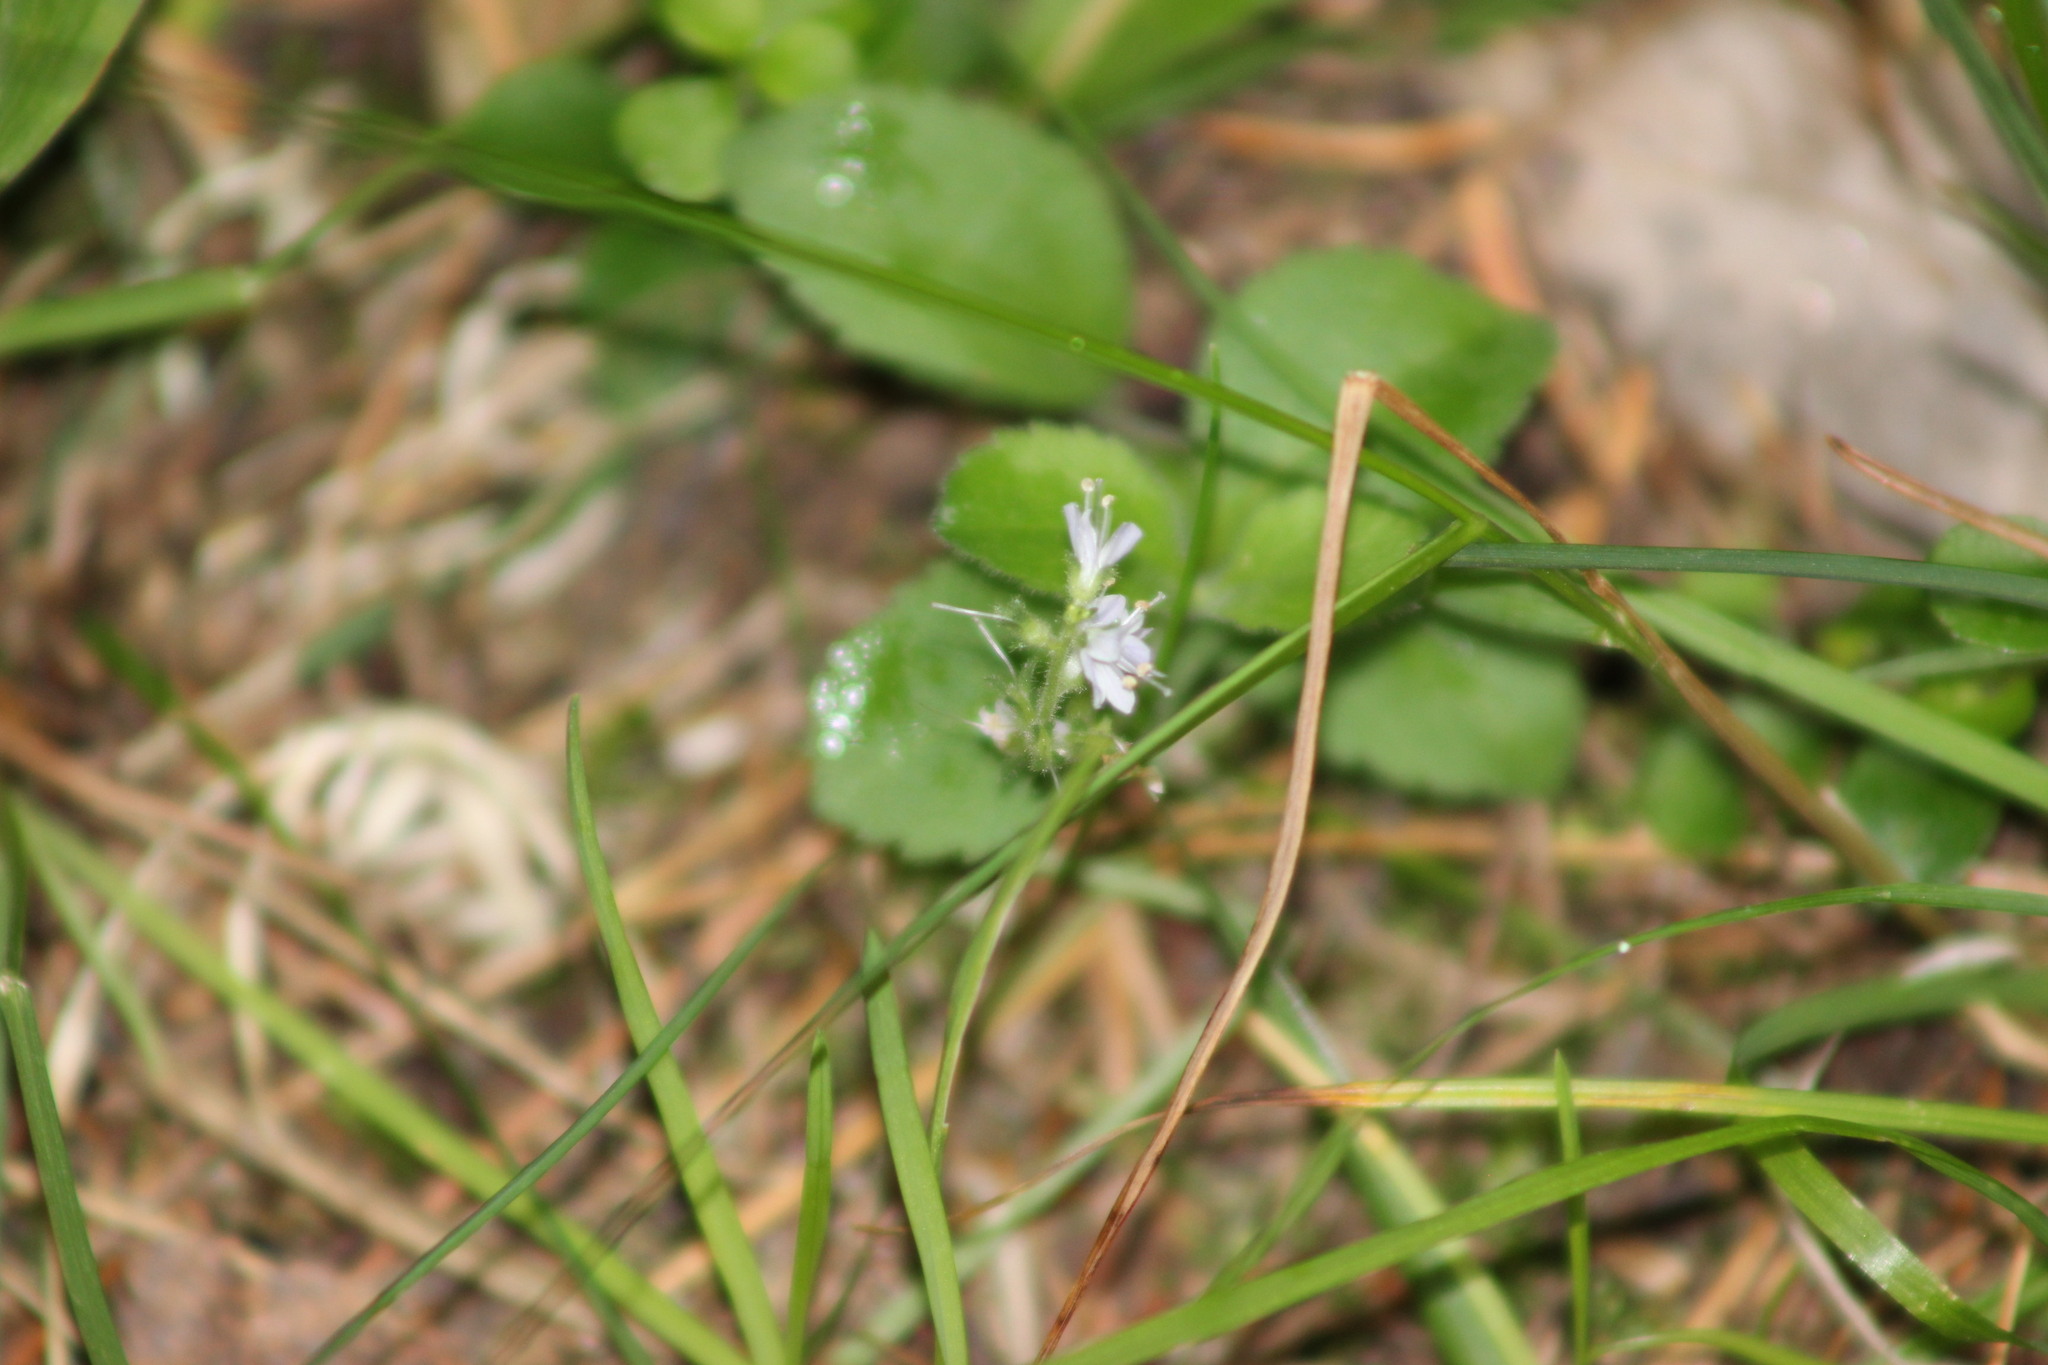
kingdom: Plantae
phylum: Tracheophyta
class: Magnoliopsida
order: Lamiales
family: Plantaginaceae
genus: Veronica
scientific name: Veronica officinalis
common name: Common speedwell
